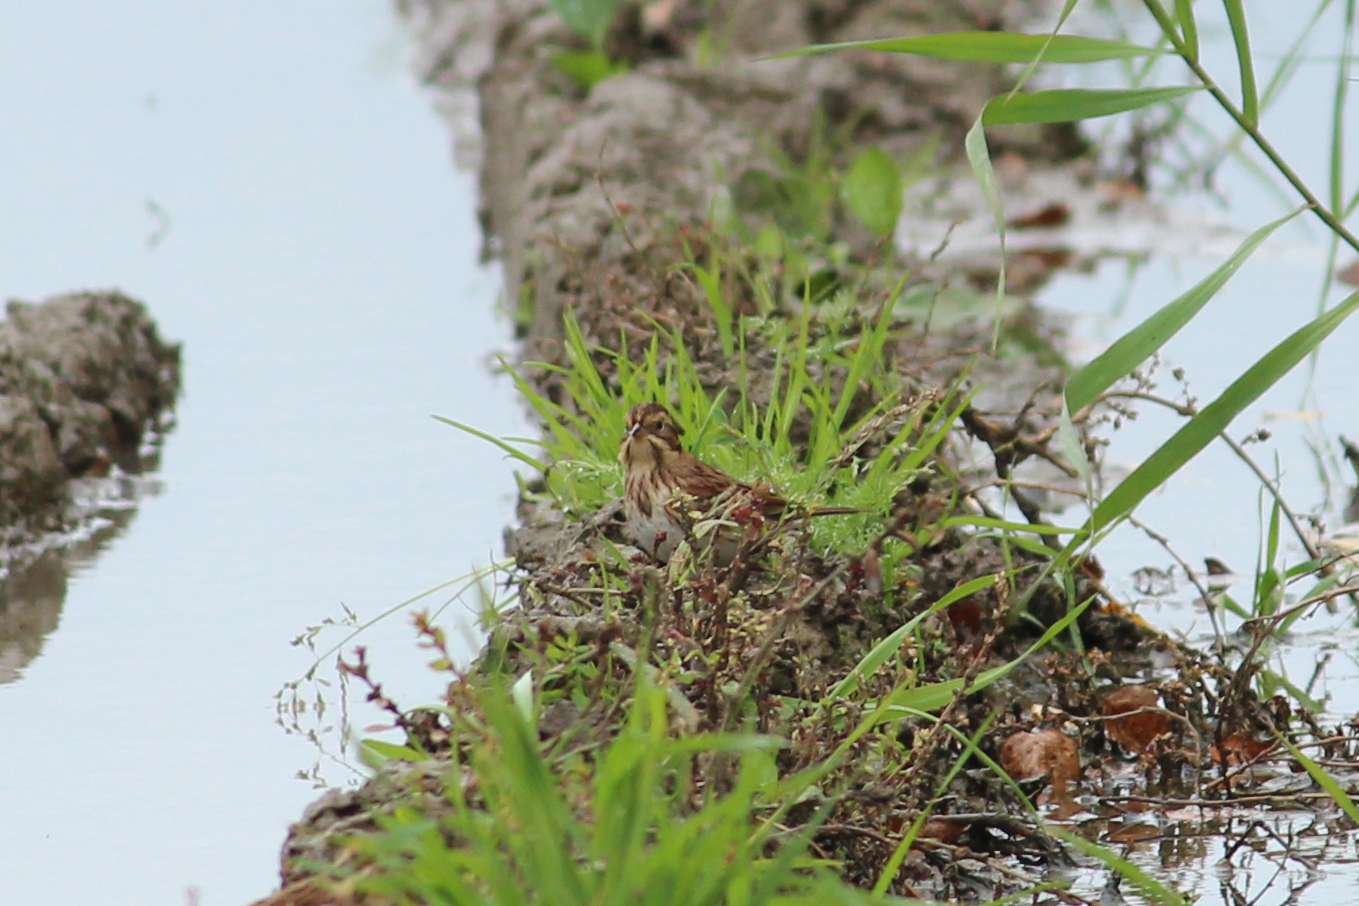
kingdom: Animalia
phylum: Chordata
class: Aves
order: Passeriformes
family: Emberizidae
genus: Emberiza
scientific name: Emberiza rustica
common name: Rustic bunting
